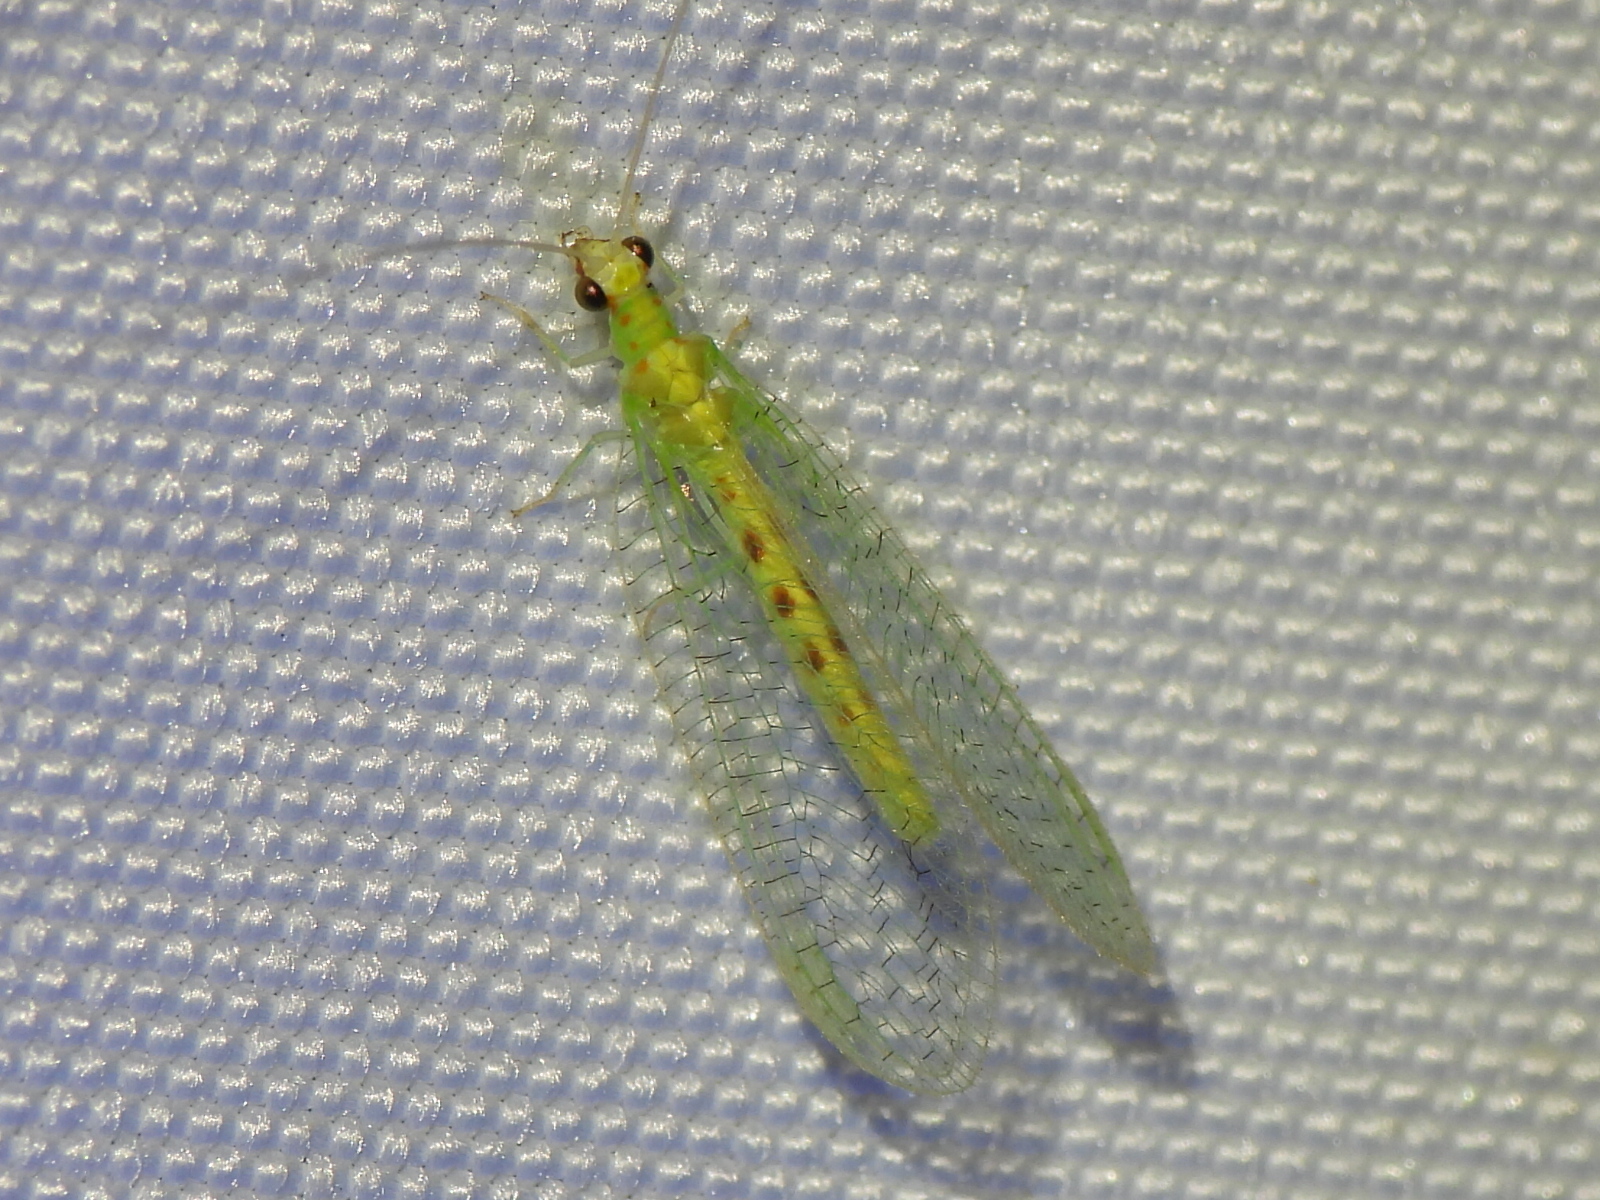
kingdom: Animalia
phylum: Arthropoda
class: Insecta
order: Neuroptera
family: Chrysopidae
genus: Chrysopa
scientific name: Chrysopa quadripunctata
